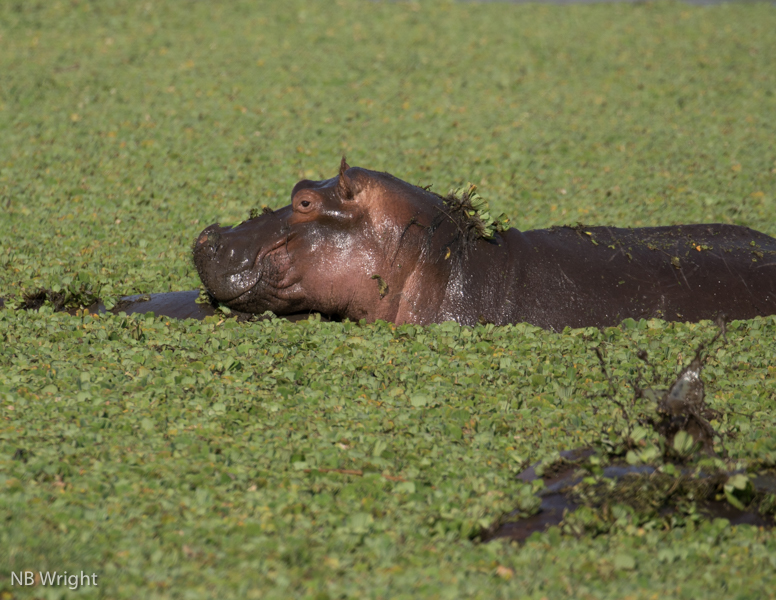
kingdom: Animalia
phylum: Chordata
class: Mammalia
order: Artiodactyla
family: Hippopotamidae
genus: Hippopotamus
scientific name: Hippopotamus amphibius
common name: Common hippopotamus
